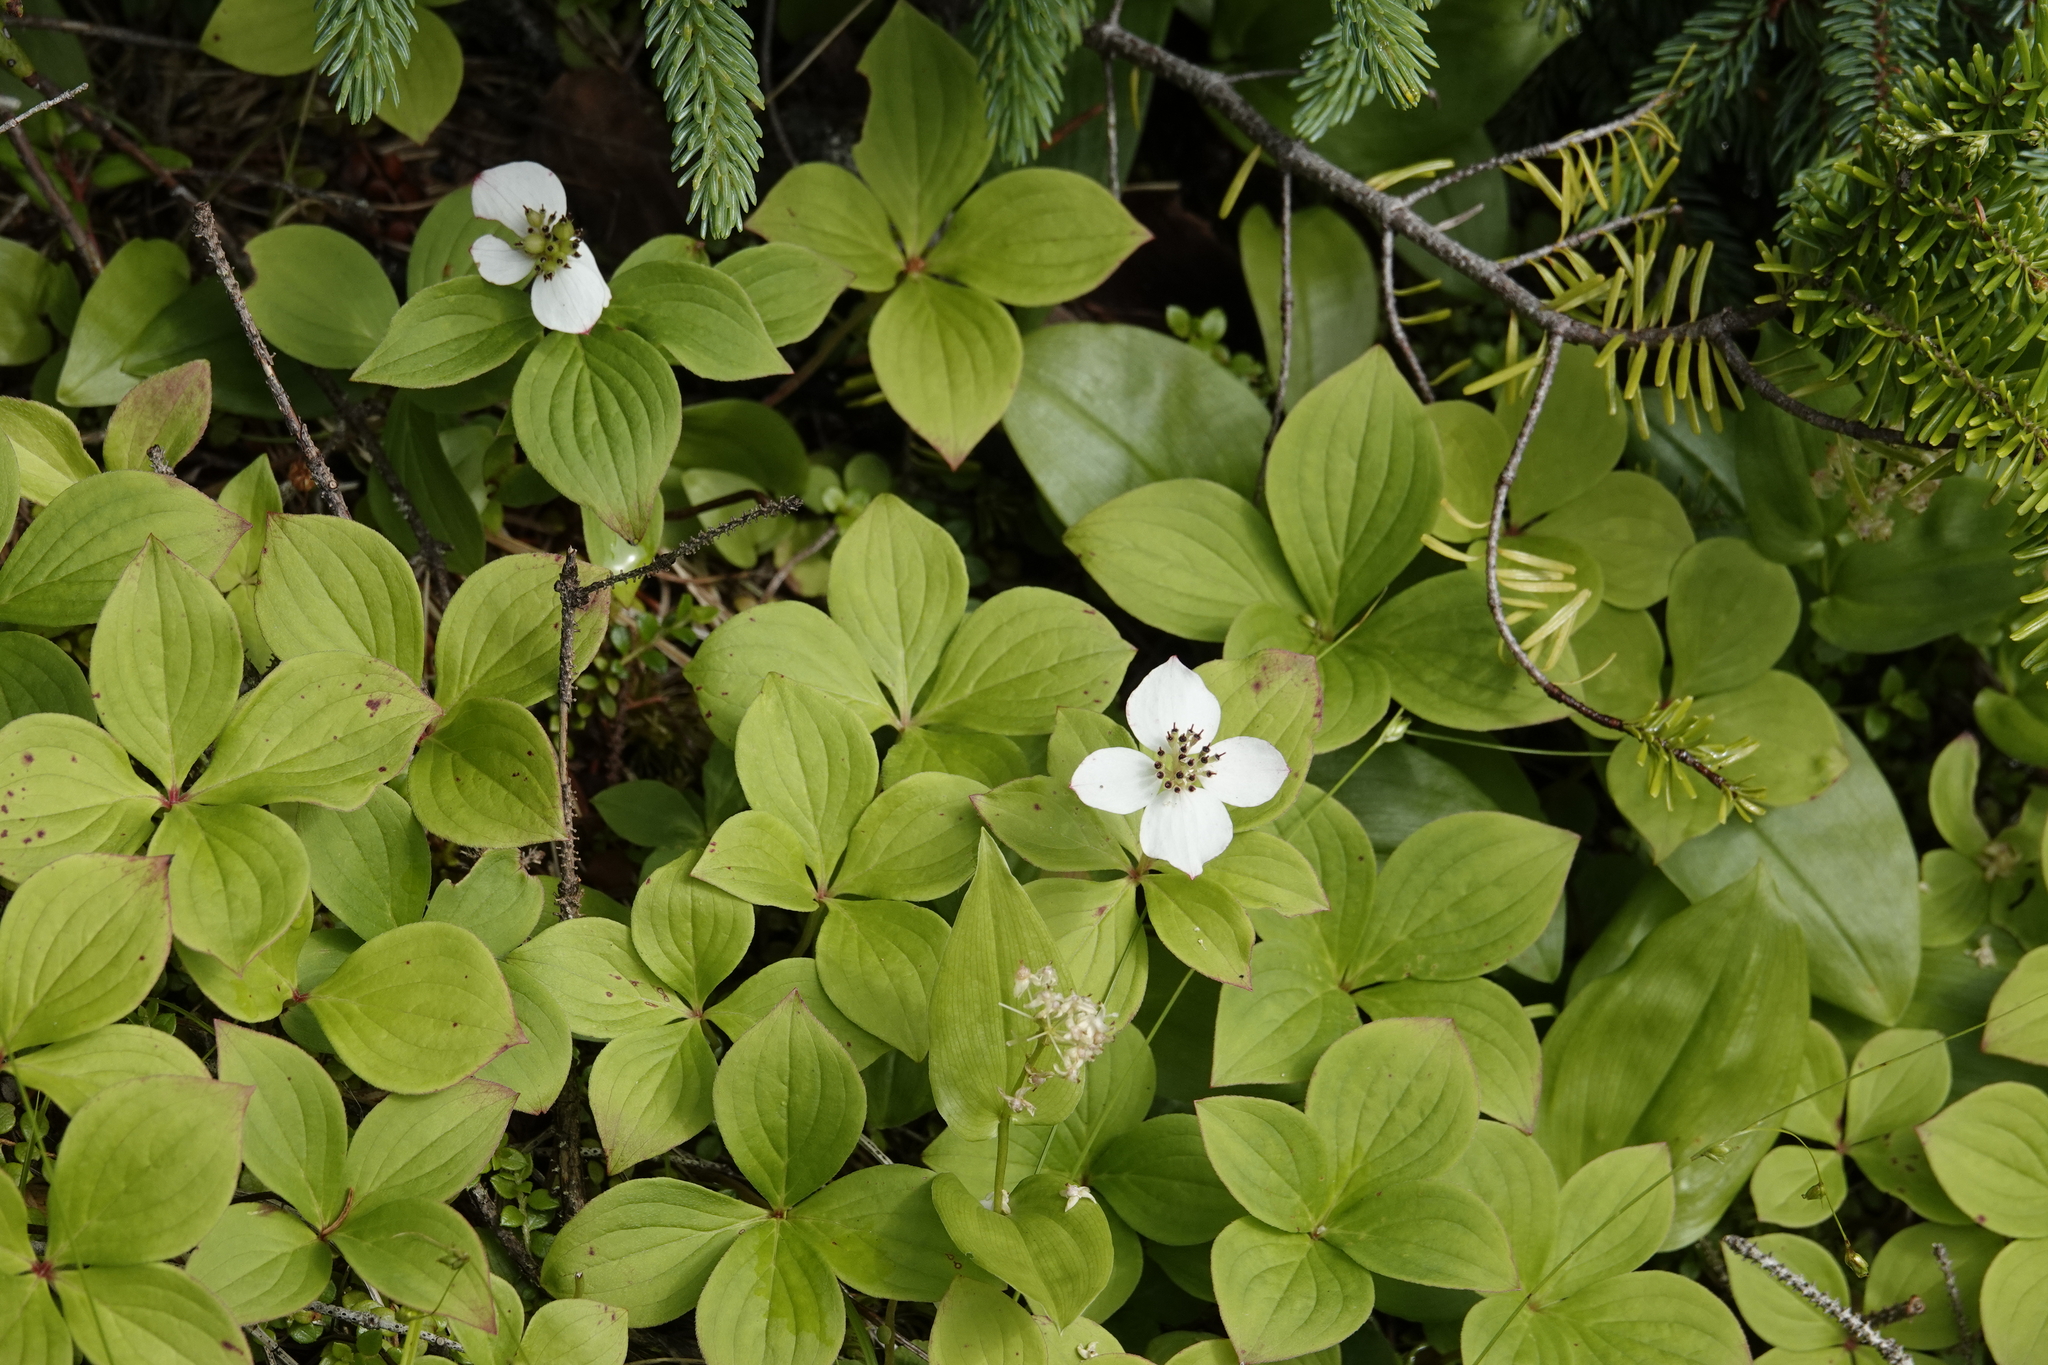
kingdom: Plantae
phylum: Tracheophyta
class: Magnoliopsida
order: Cornales
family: Cornaceae
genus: Cornus
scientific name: Cornus canadensis
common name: Creeping dogwood
